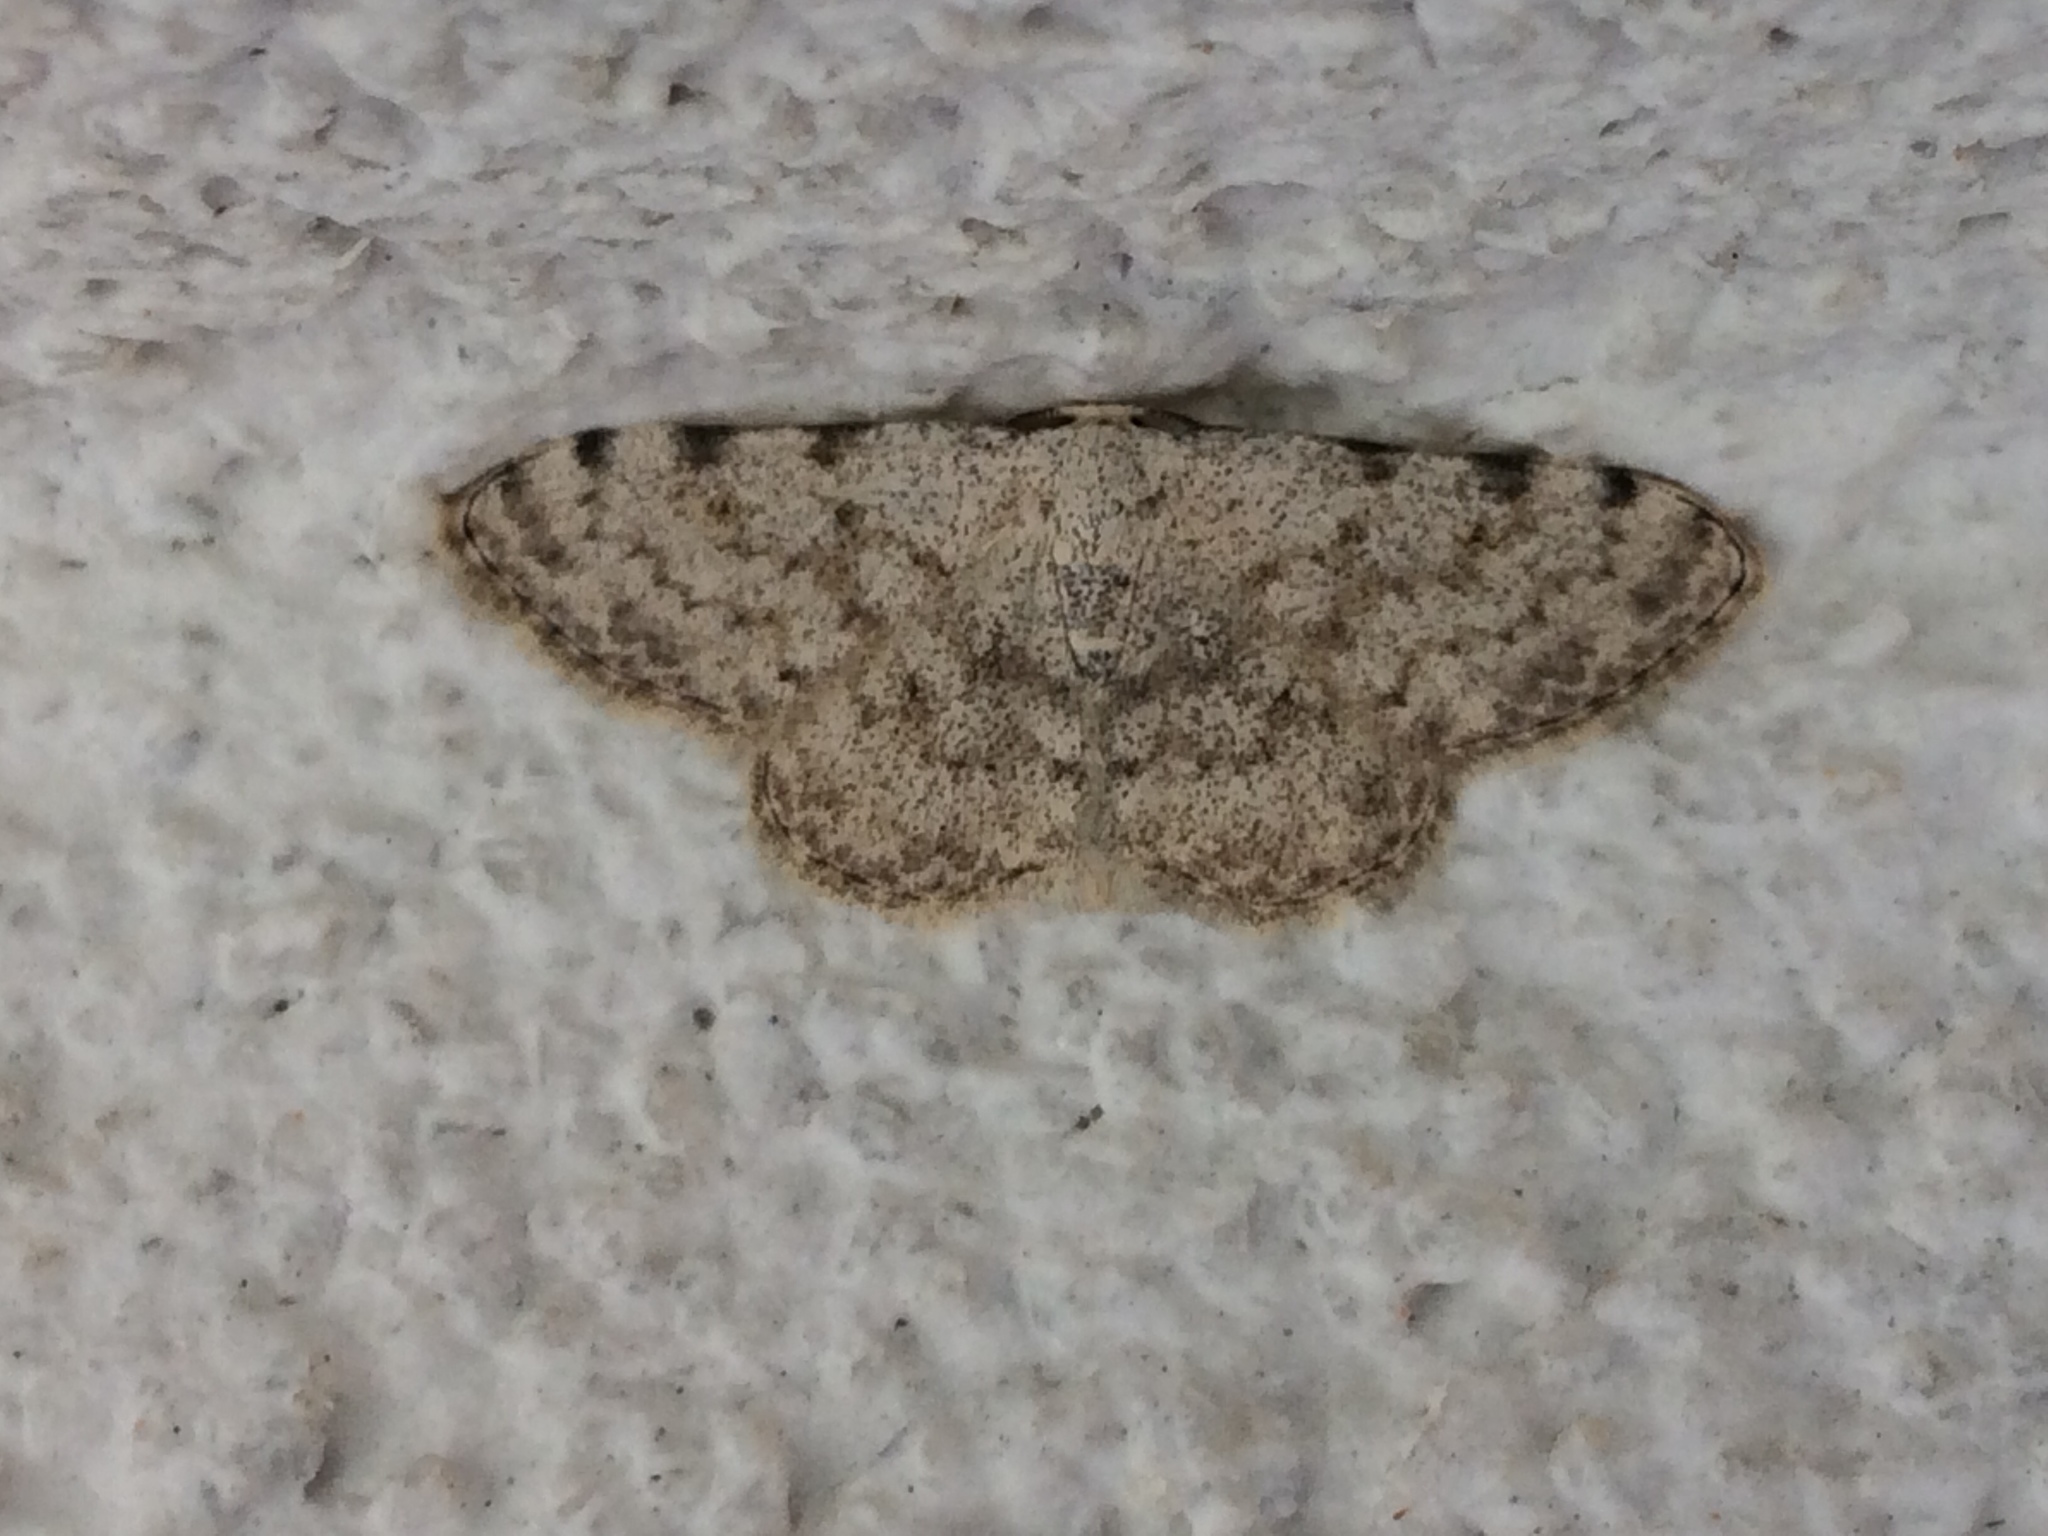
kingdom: Animalia
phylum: Arthropoda
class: Insecta
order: Lepidoptera
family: Geometridae
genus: Glossotrophia
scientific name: Glossotrophia confinaria
